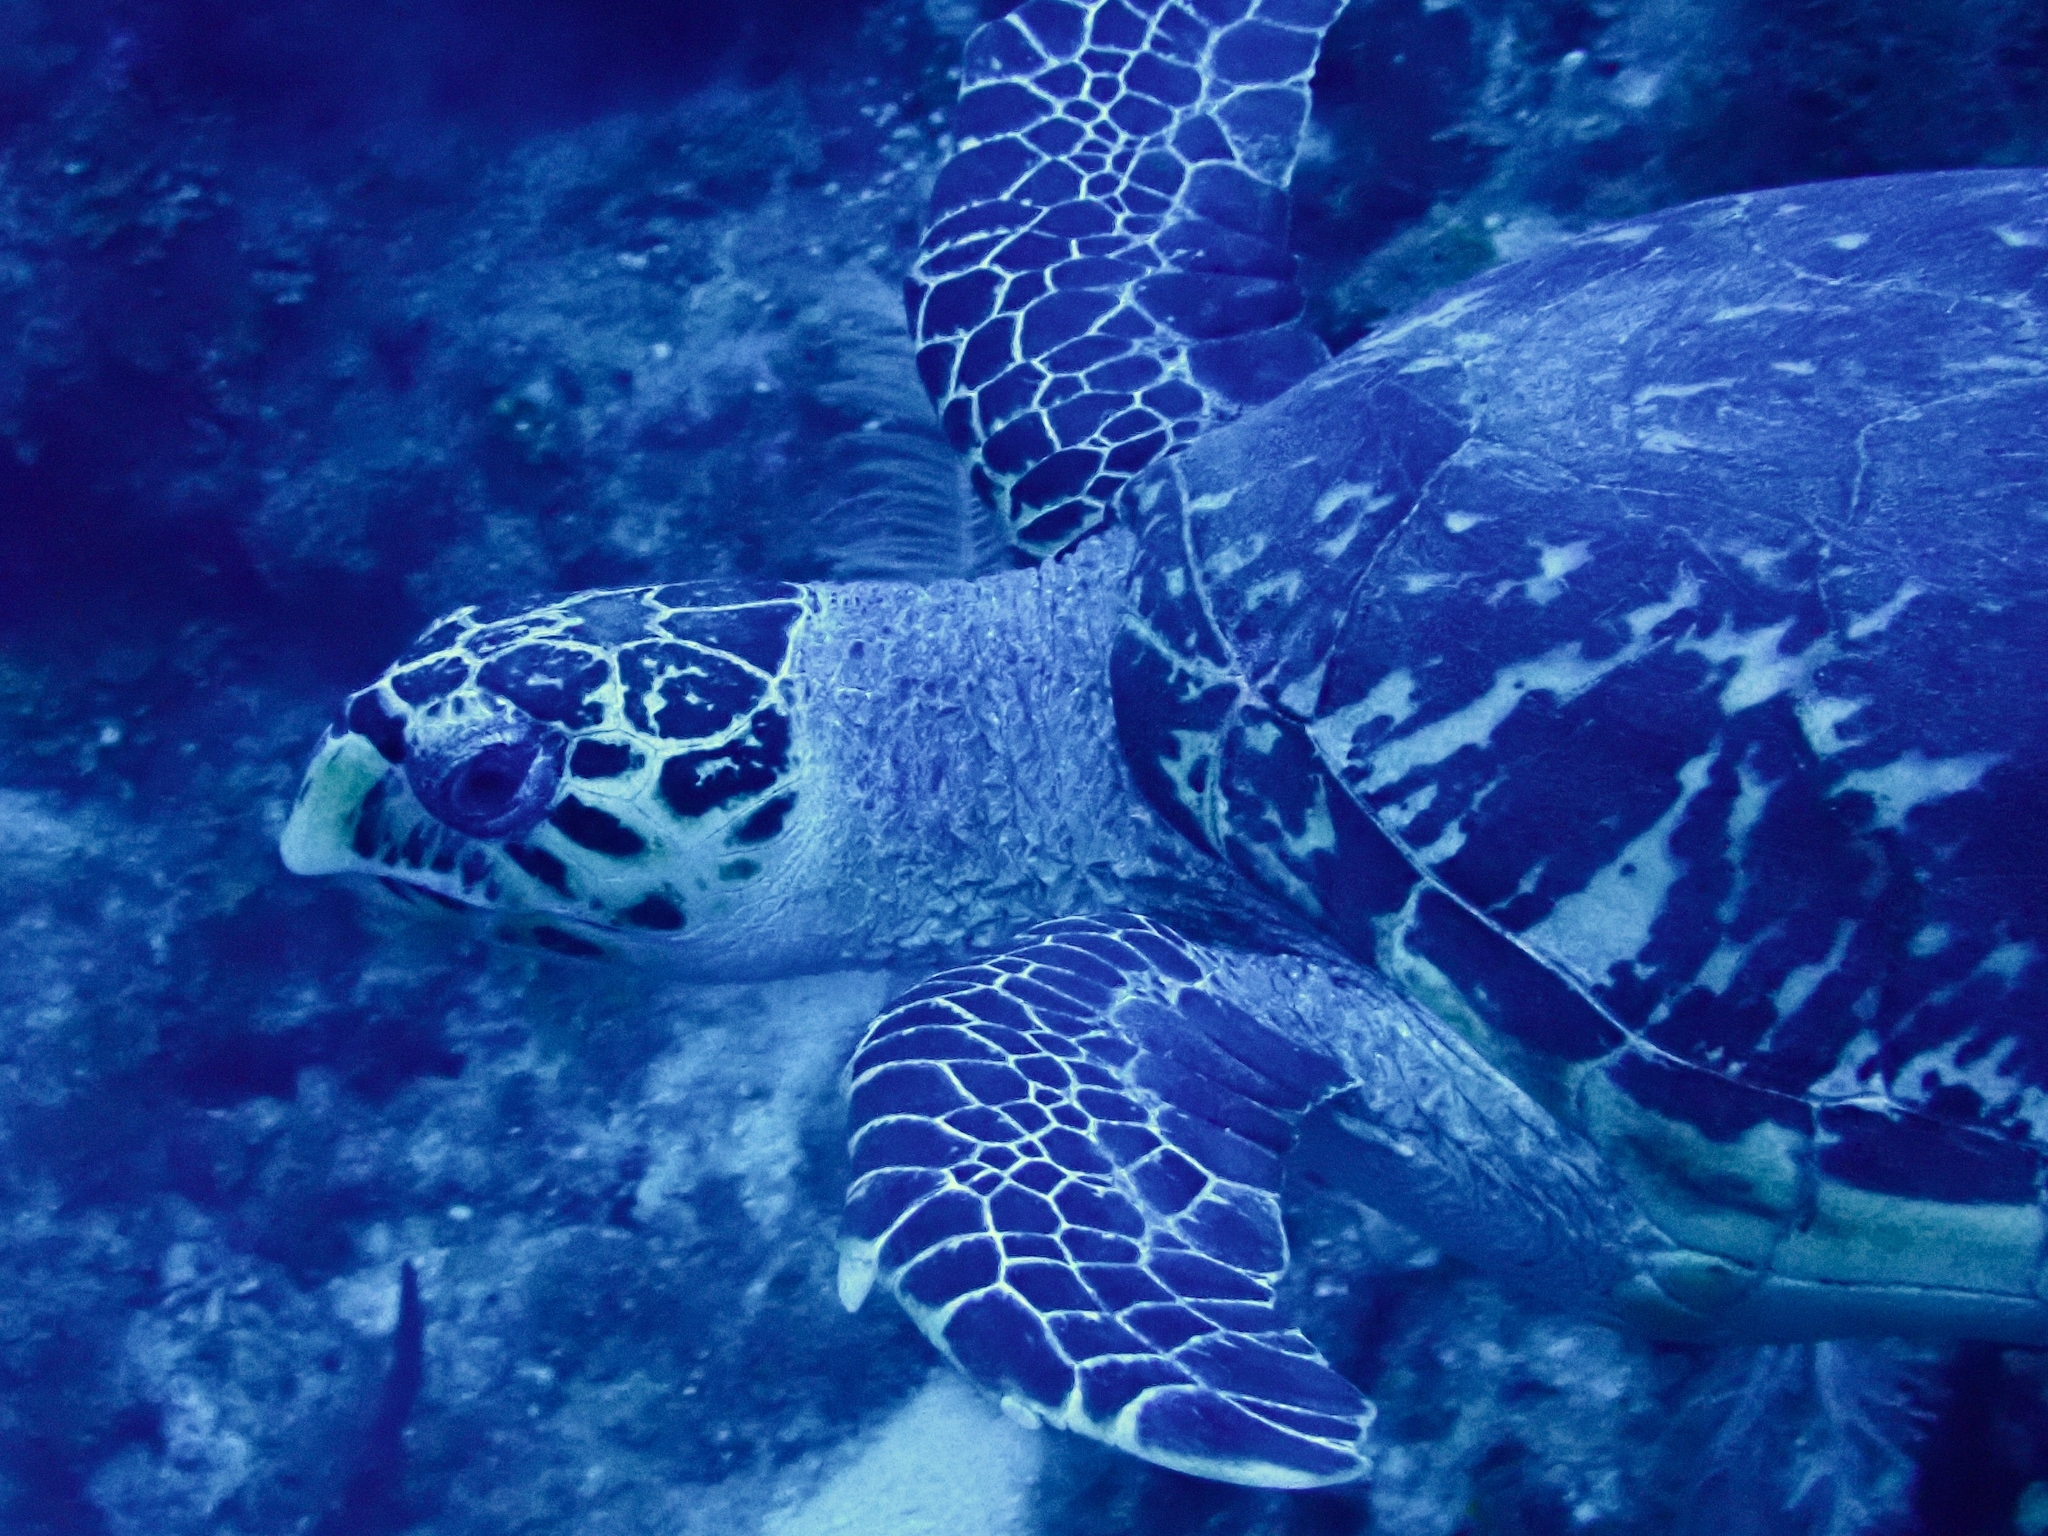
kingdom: Animalia
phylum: Chordata
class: Testudines
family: Cheloniidae
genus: Eretmochelys
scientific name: Eretmochelys imbricata
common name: Hawksbill turtle
